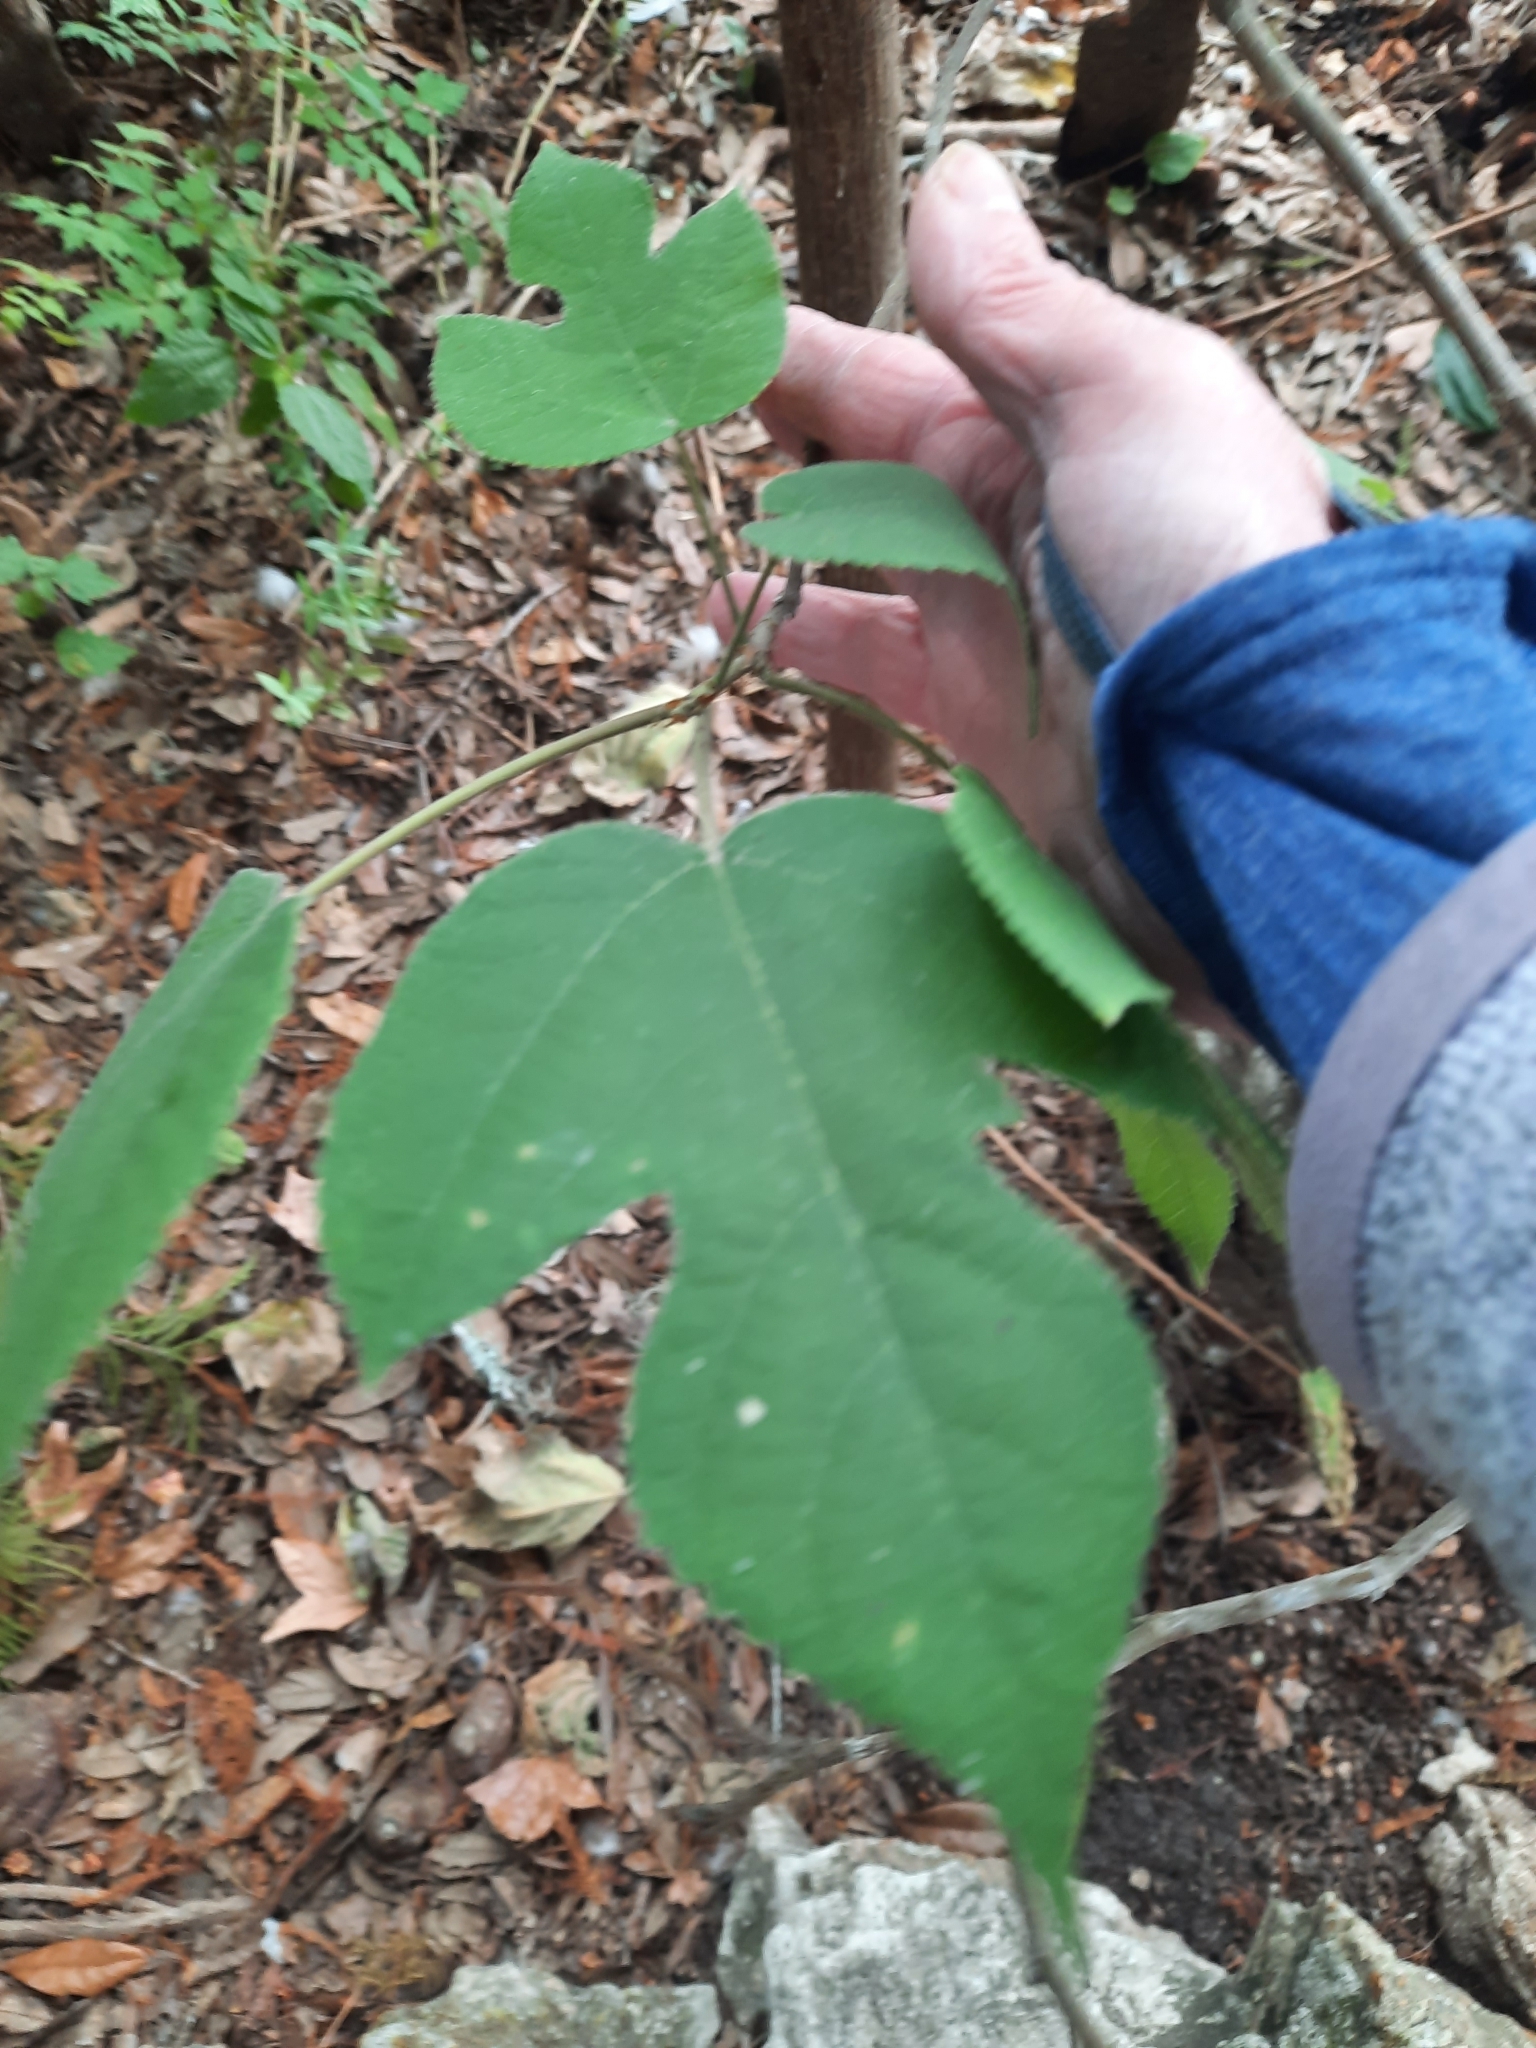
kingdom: Plantae
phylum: Tracheophyta
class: Magnoliopsida
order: Rosales
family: Moraceae
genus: Broussonetia
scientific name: Broussonetia papyrifera
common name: Paper mulberry
